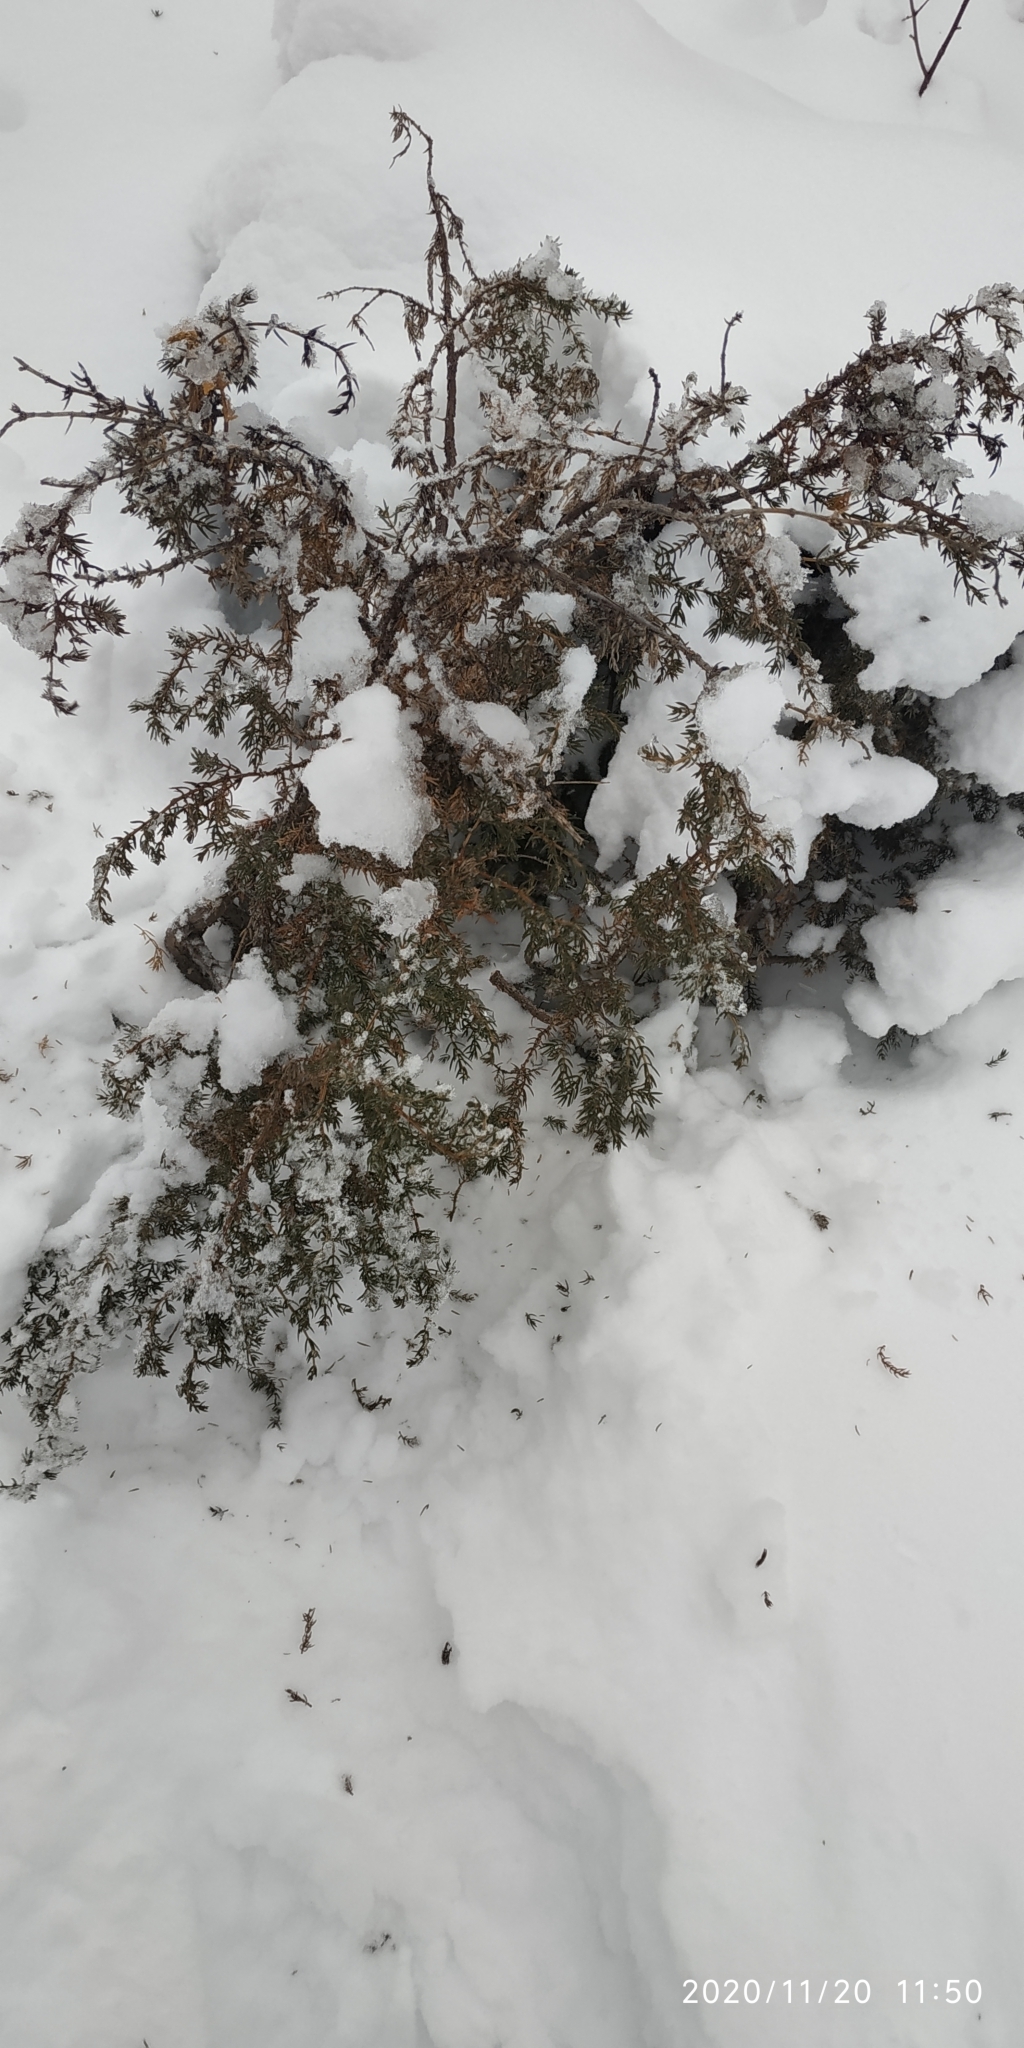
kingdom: Plantae
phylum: Tracheophyta
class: Pinopsida
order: Pinales
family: Cupressaceae
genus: Juniperus
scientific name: Juniperus communis
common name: Common juniper
